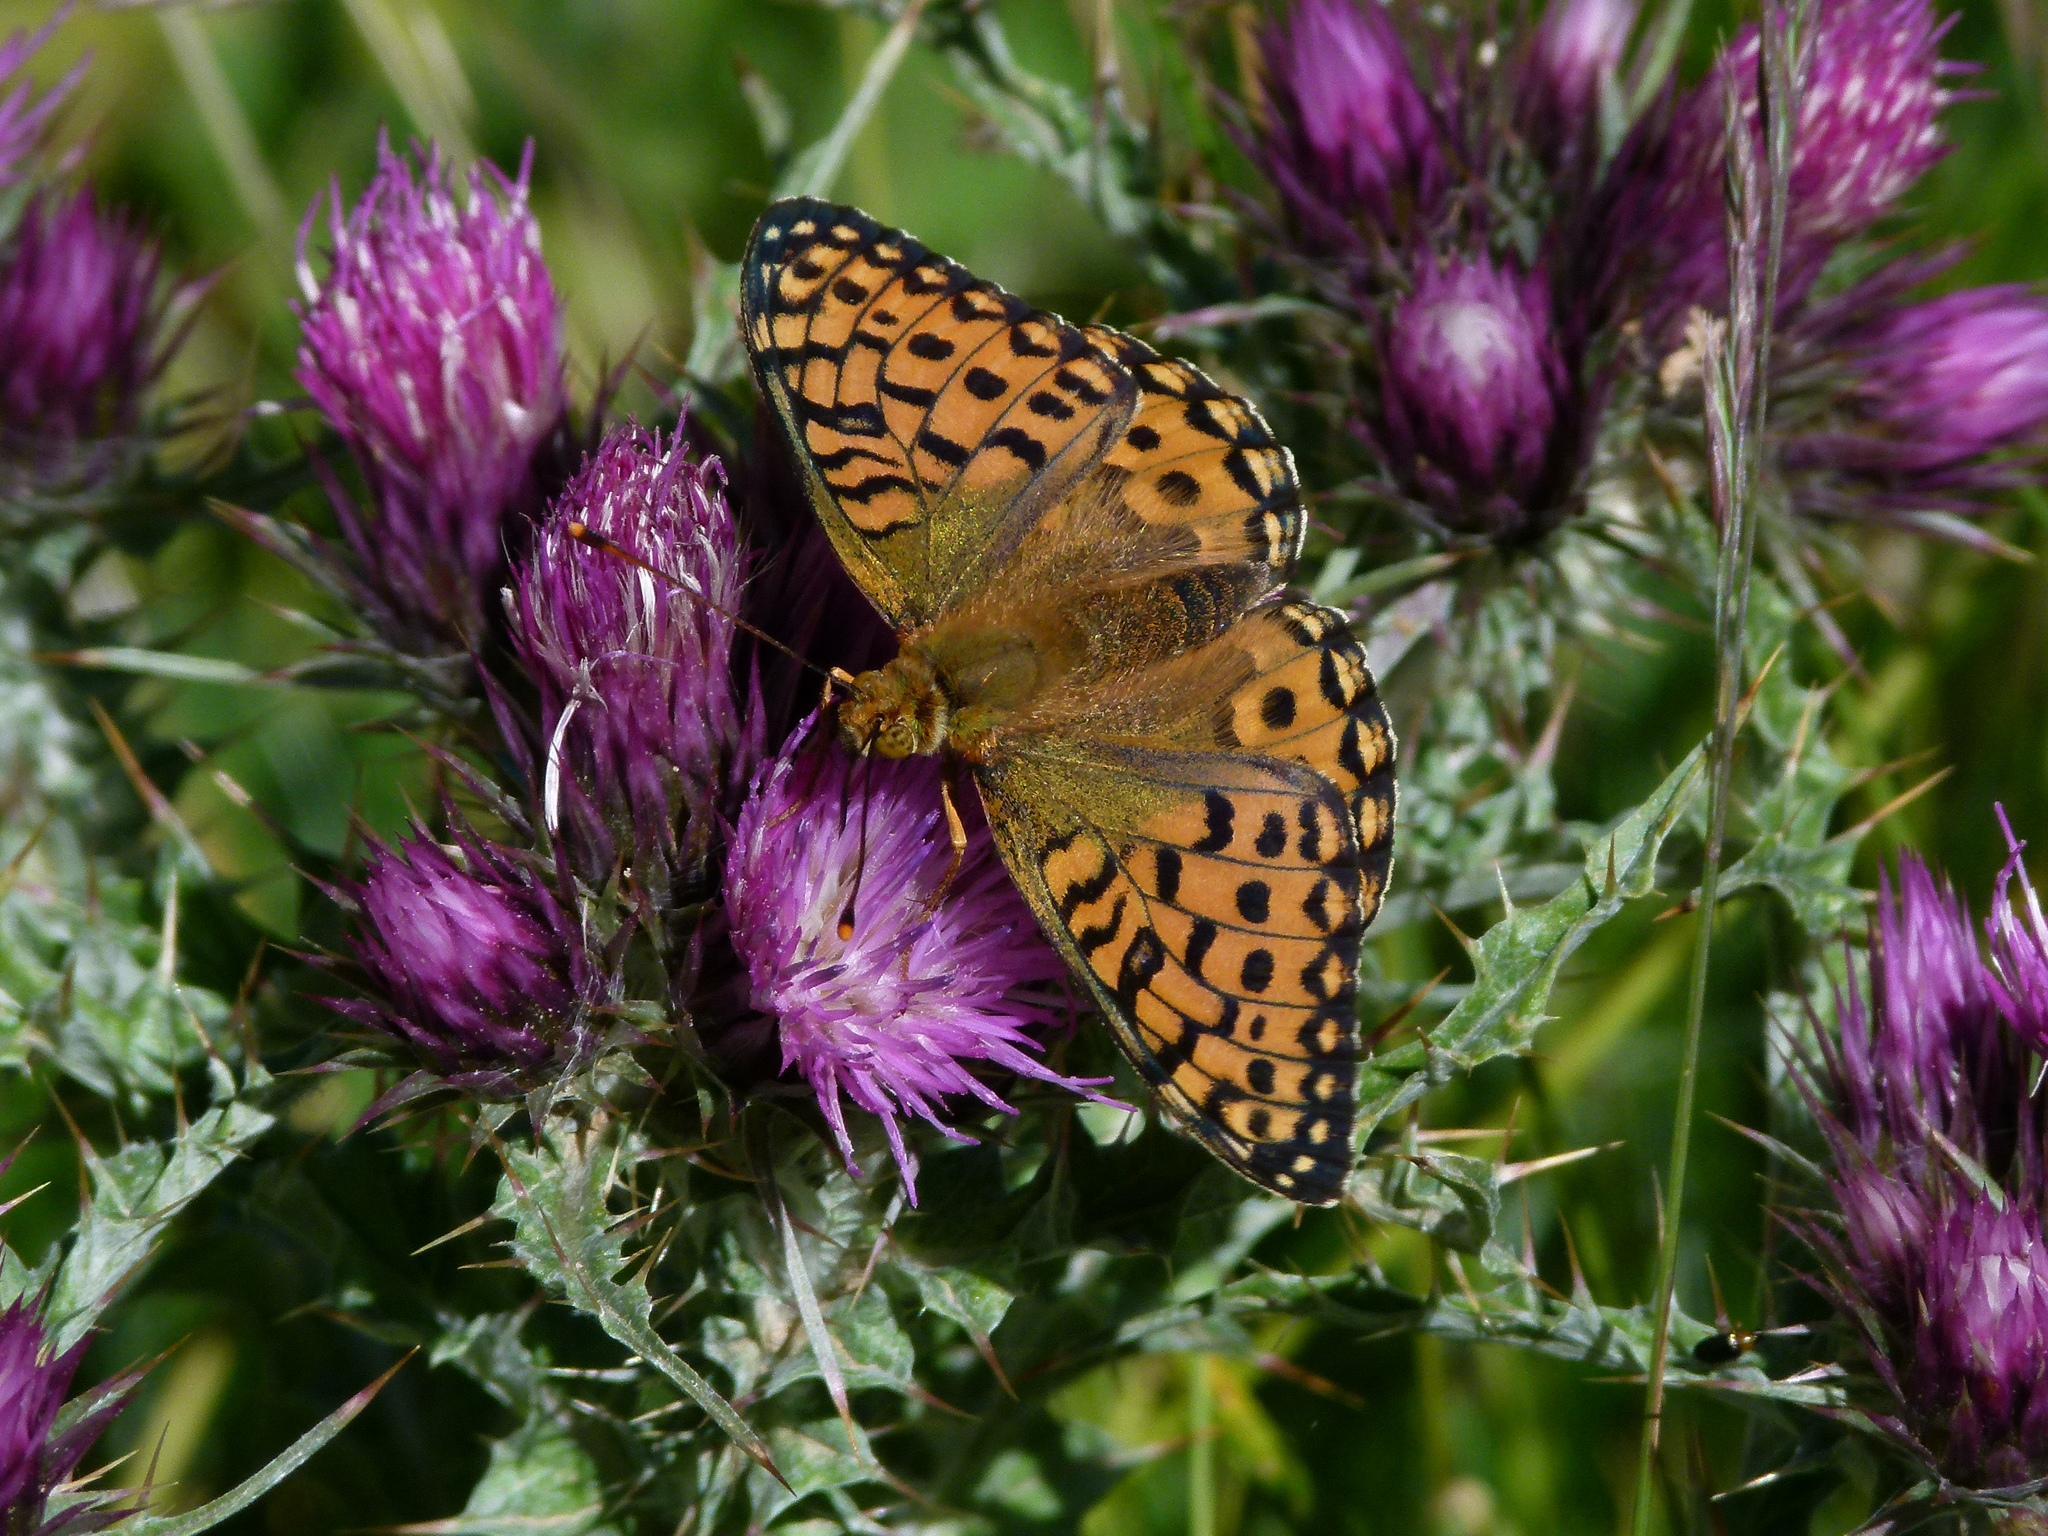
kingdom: Animalia
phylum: Arthropoda
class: Insecta
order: Lepidoptera
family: Nymphalidae
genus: Speyeria
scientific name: Speyeria aglaja
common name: Dark green fritillary
